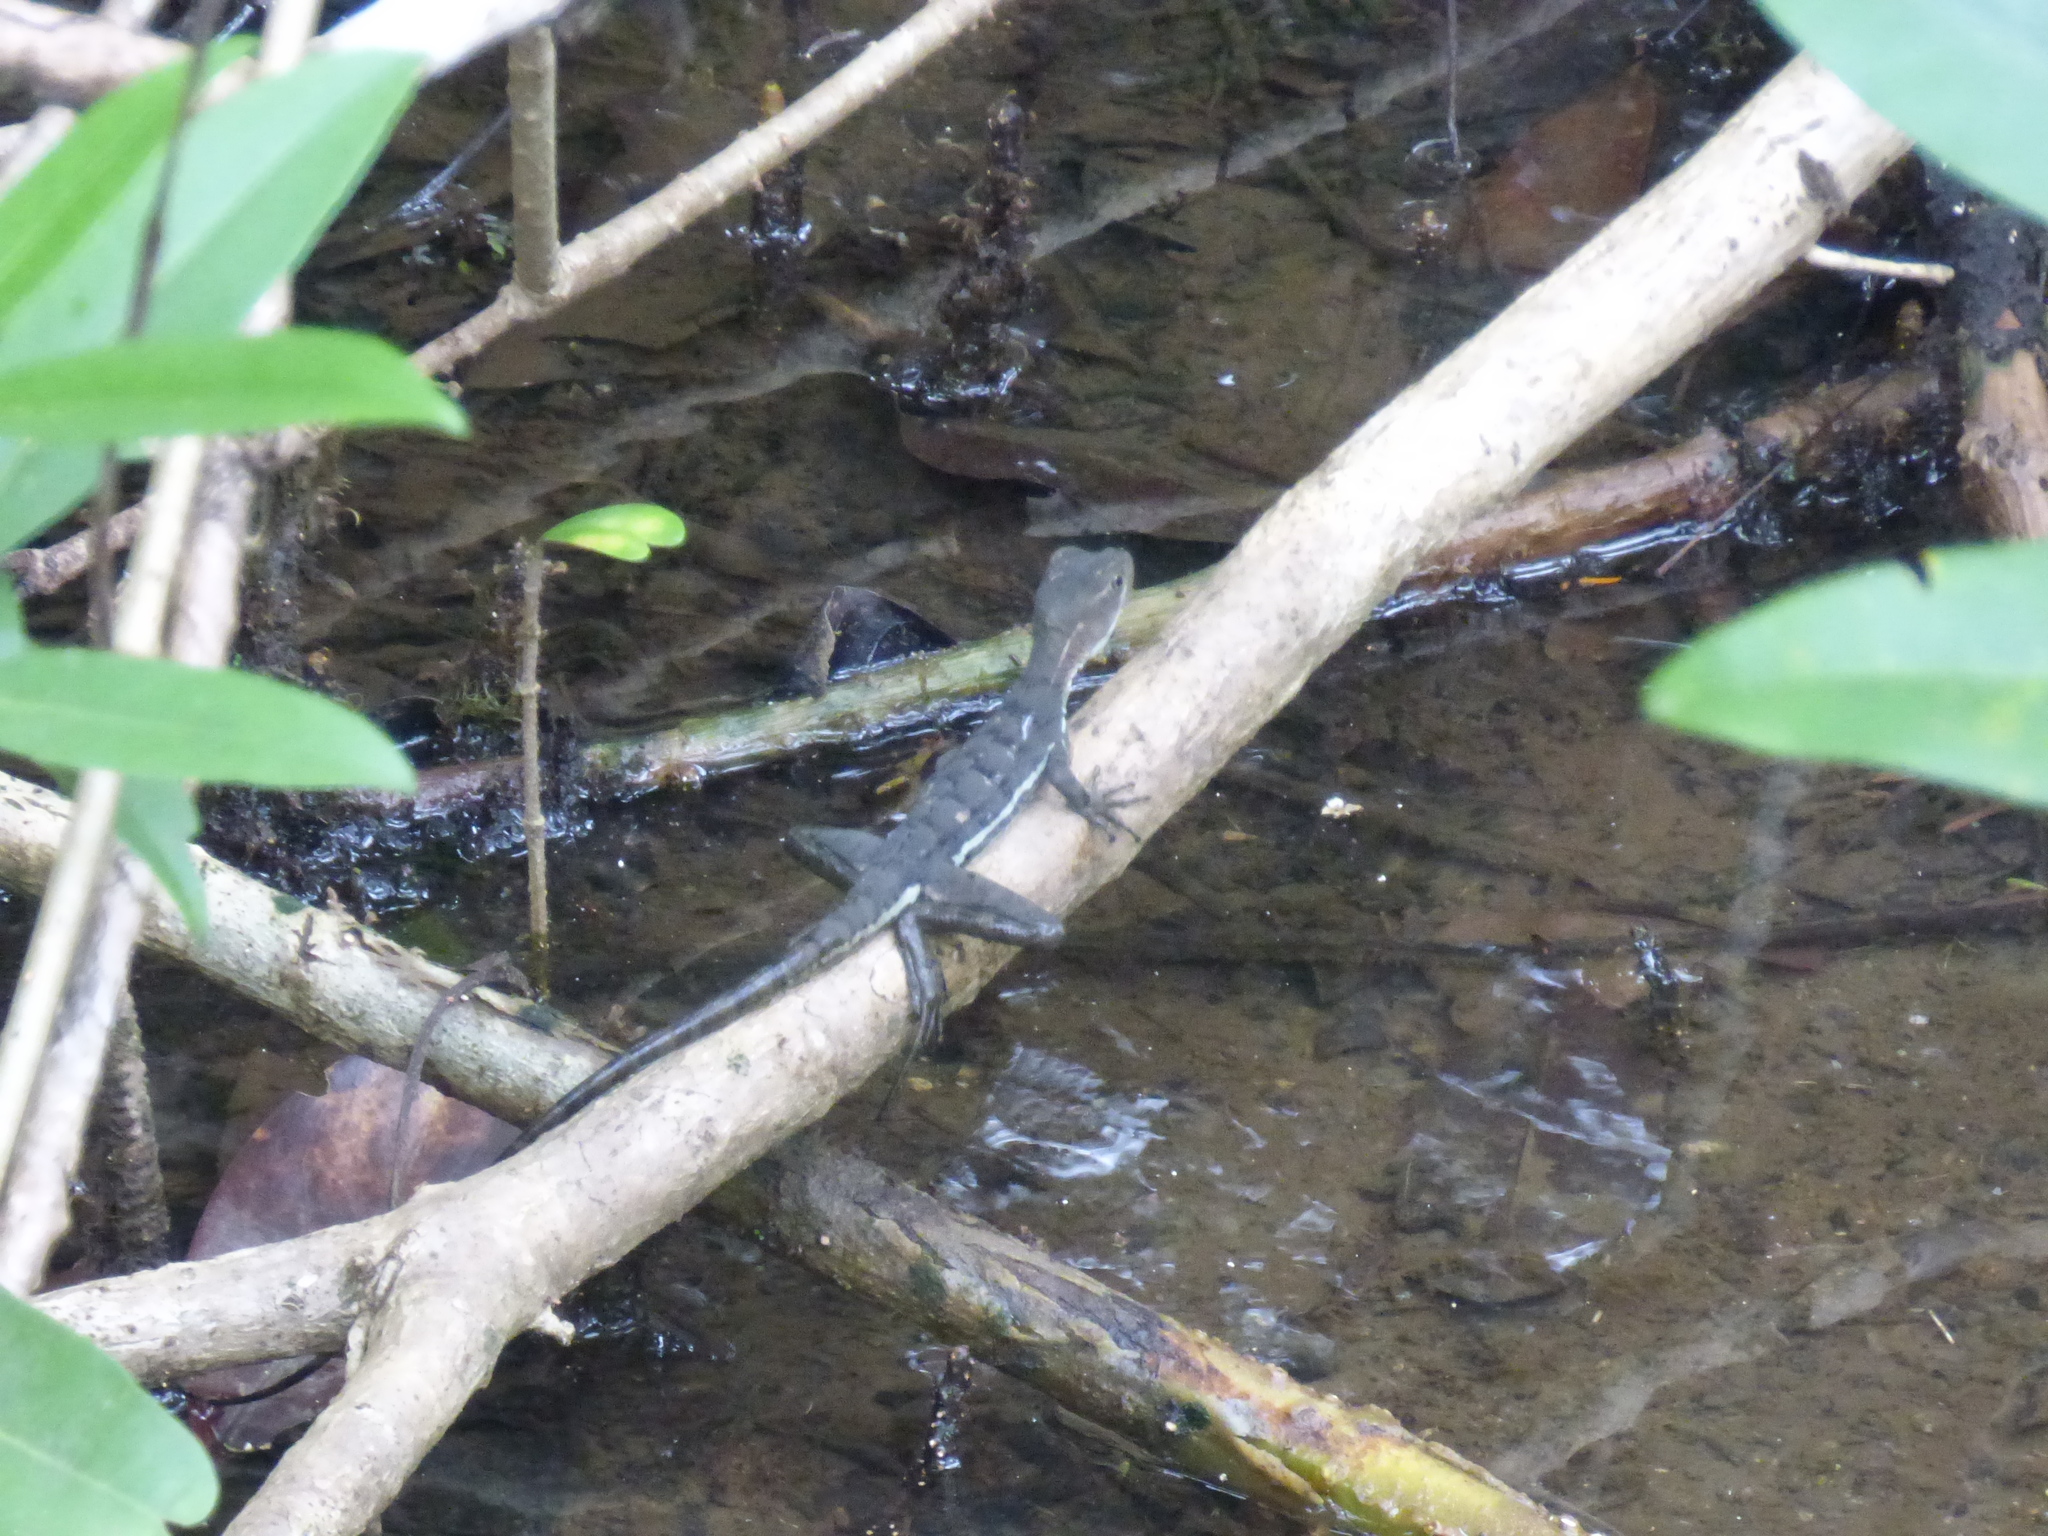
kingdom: Animalia
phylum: Chordata
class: Squamata
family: Corytophanidae
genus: Basiliscus
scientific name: Basiliscus galeritus
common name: Western basilisk
